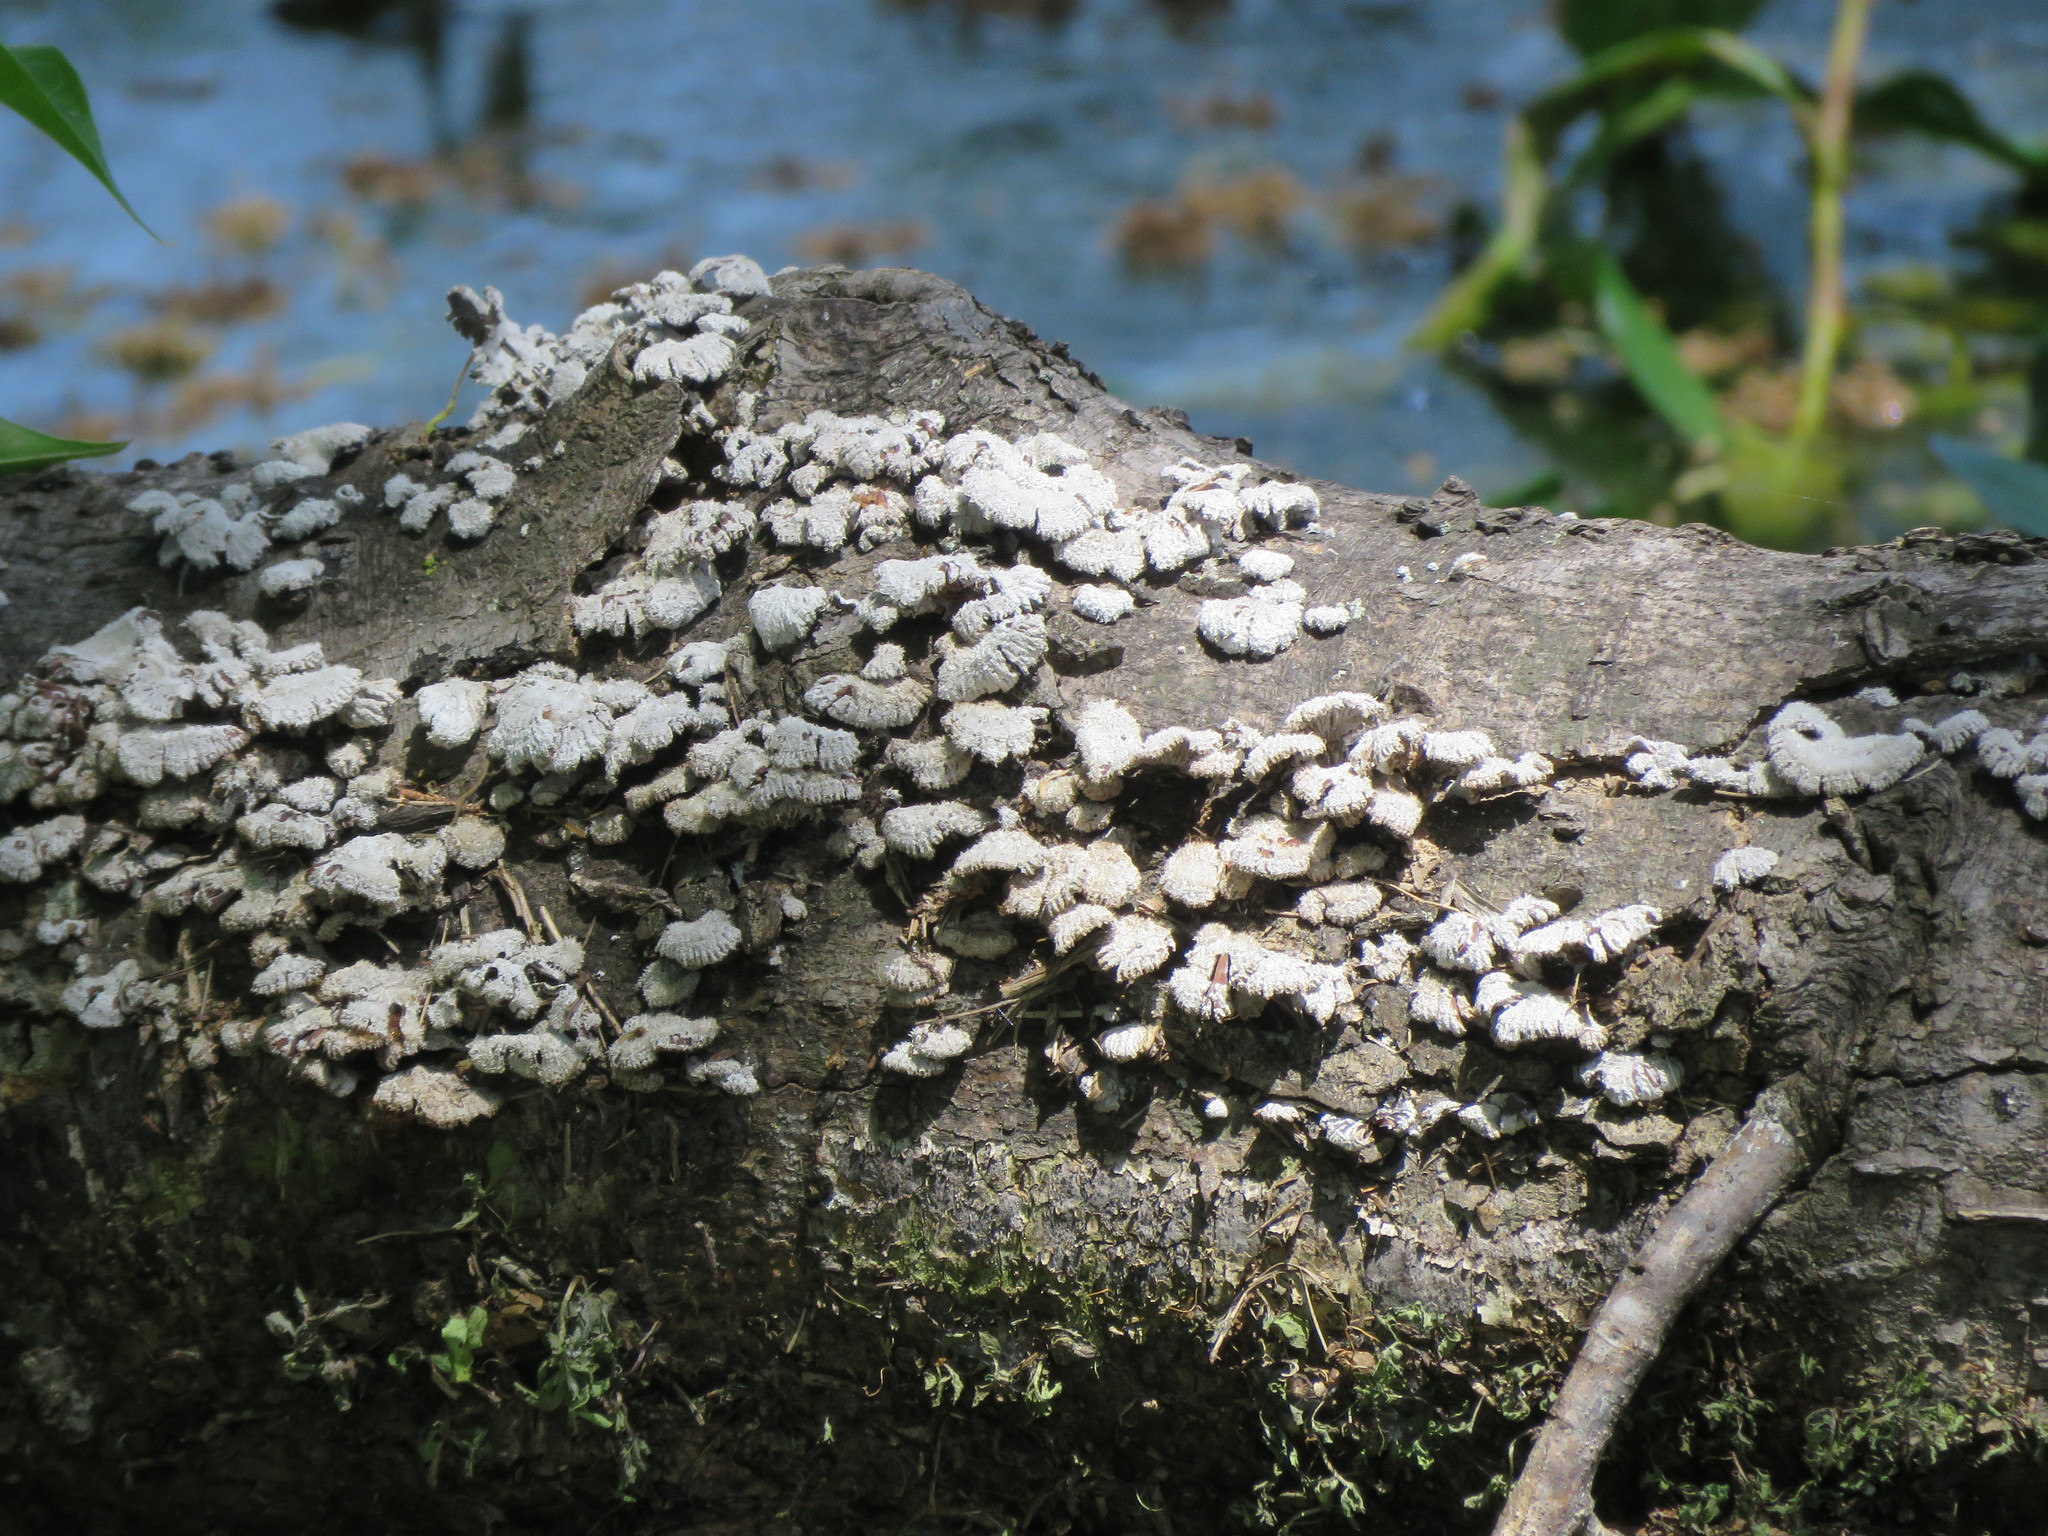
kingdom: Fungi
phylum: Basidiomycota
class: Agaricomycetes
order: Agaricales
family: Schizophyllaceae
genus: Schizophyllum
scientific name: Schizophyllum commune
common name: Common porecrust
